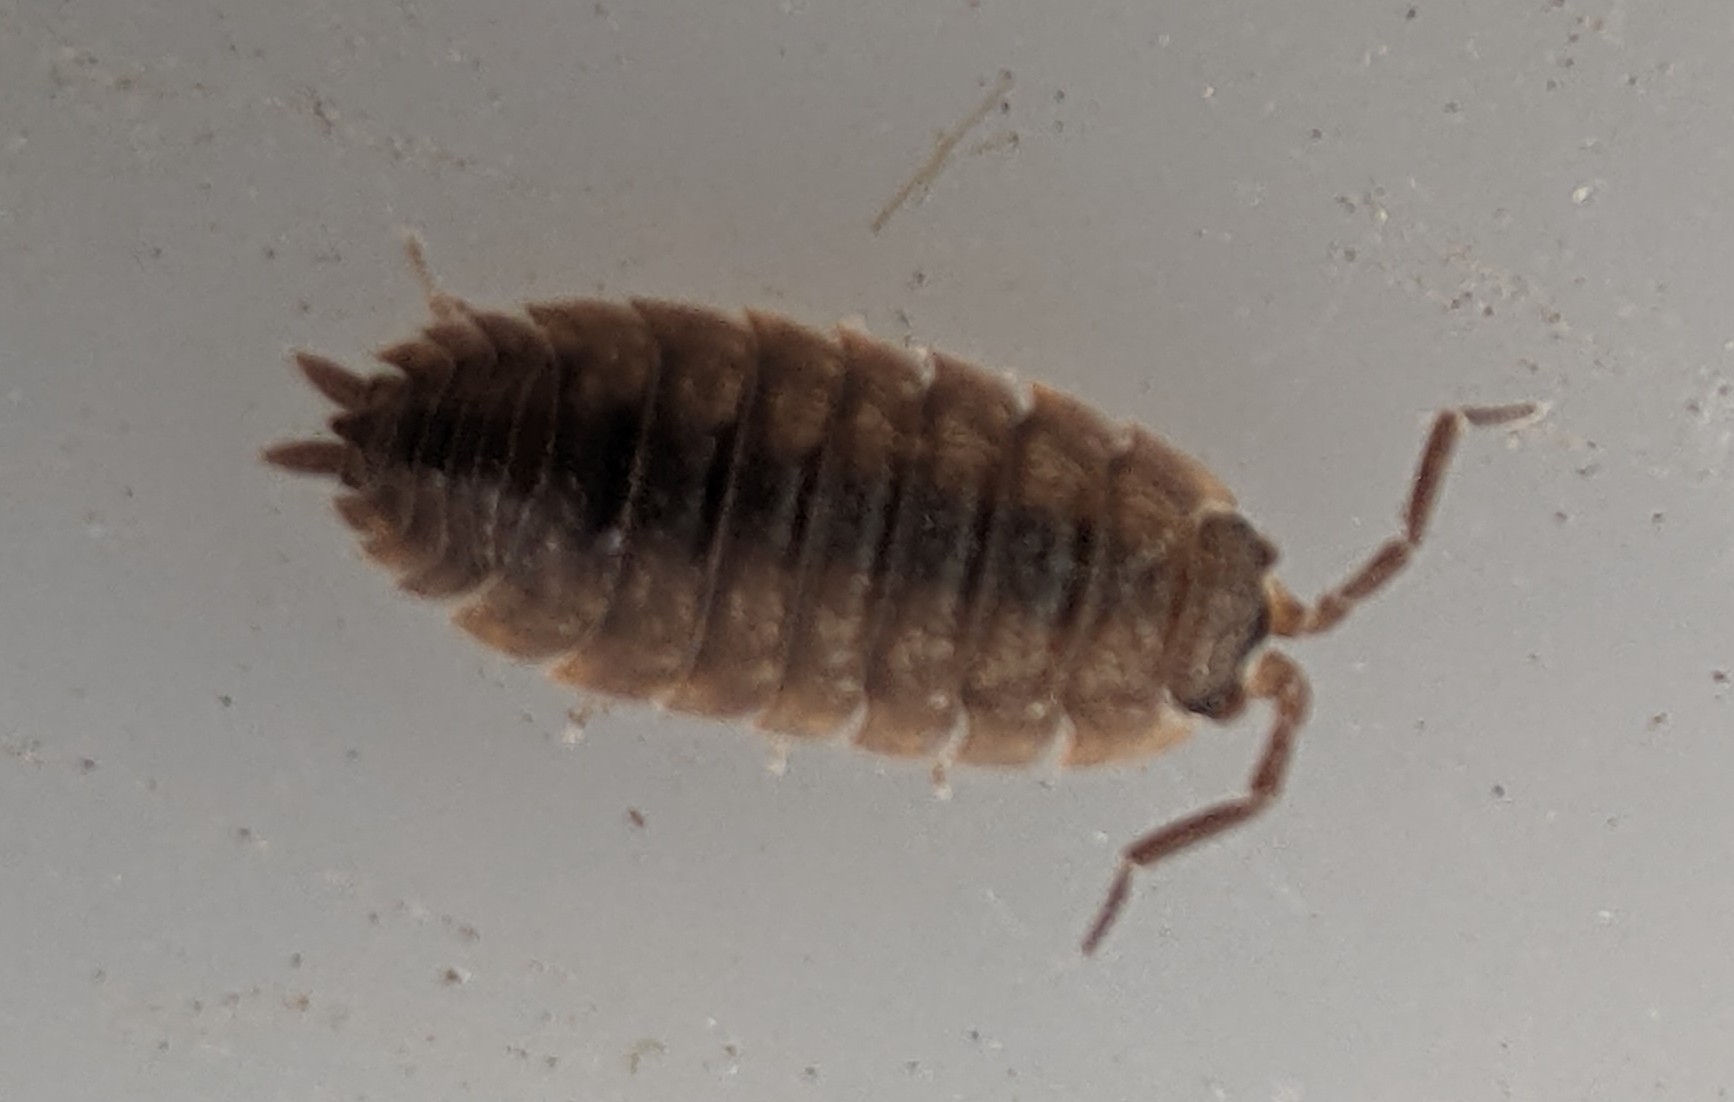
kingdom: Animalia
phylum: Arthropoda
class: Malacostraca
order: Isopoda
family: Porcellionidae
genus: Porcellio
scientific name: Porcellio scaber
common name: Common rough woodlouse
